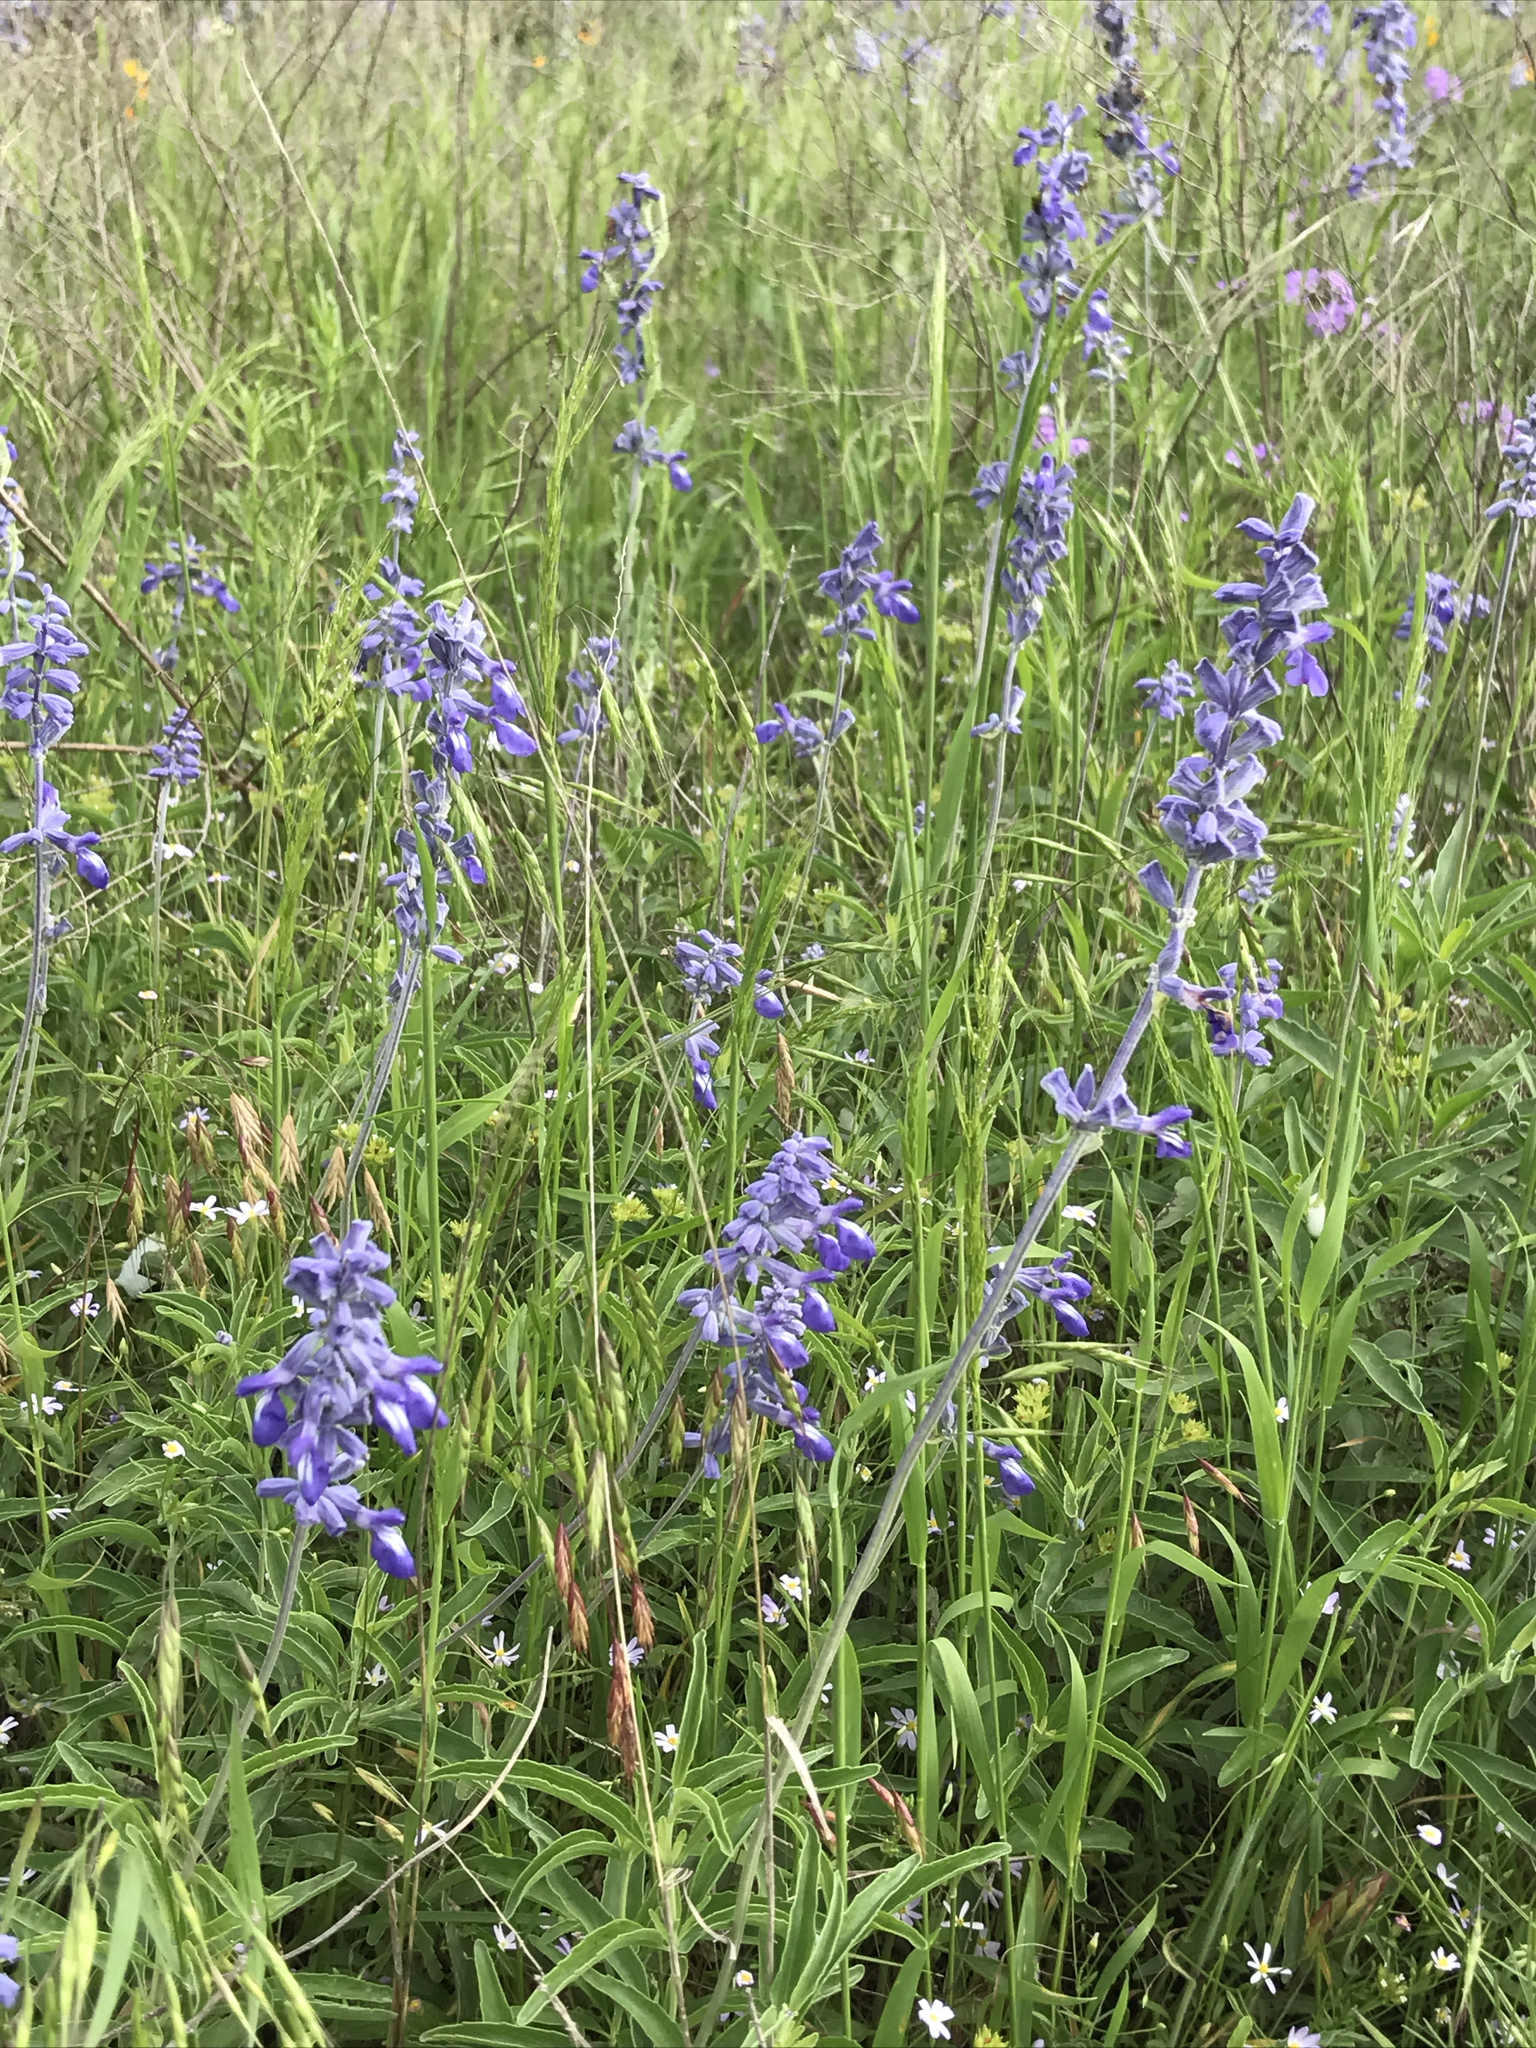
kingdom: Plantae
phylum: Tracheophyta
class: Magnoliopsida
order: Lamiales
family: Lamiaceae
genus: Salvia
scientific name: Salvia farinacea
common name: Mealy sage
